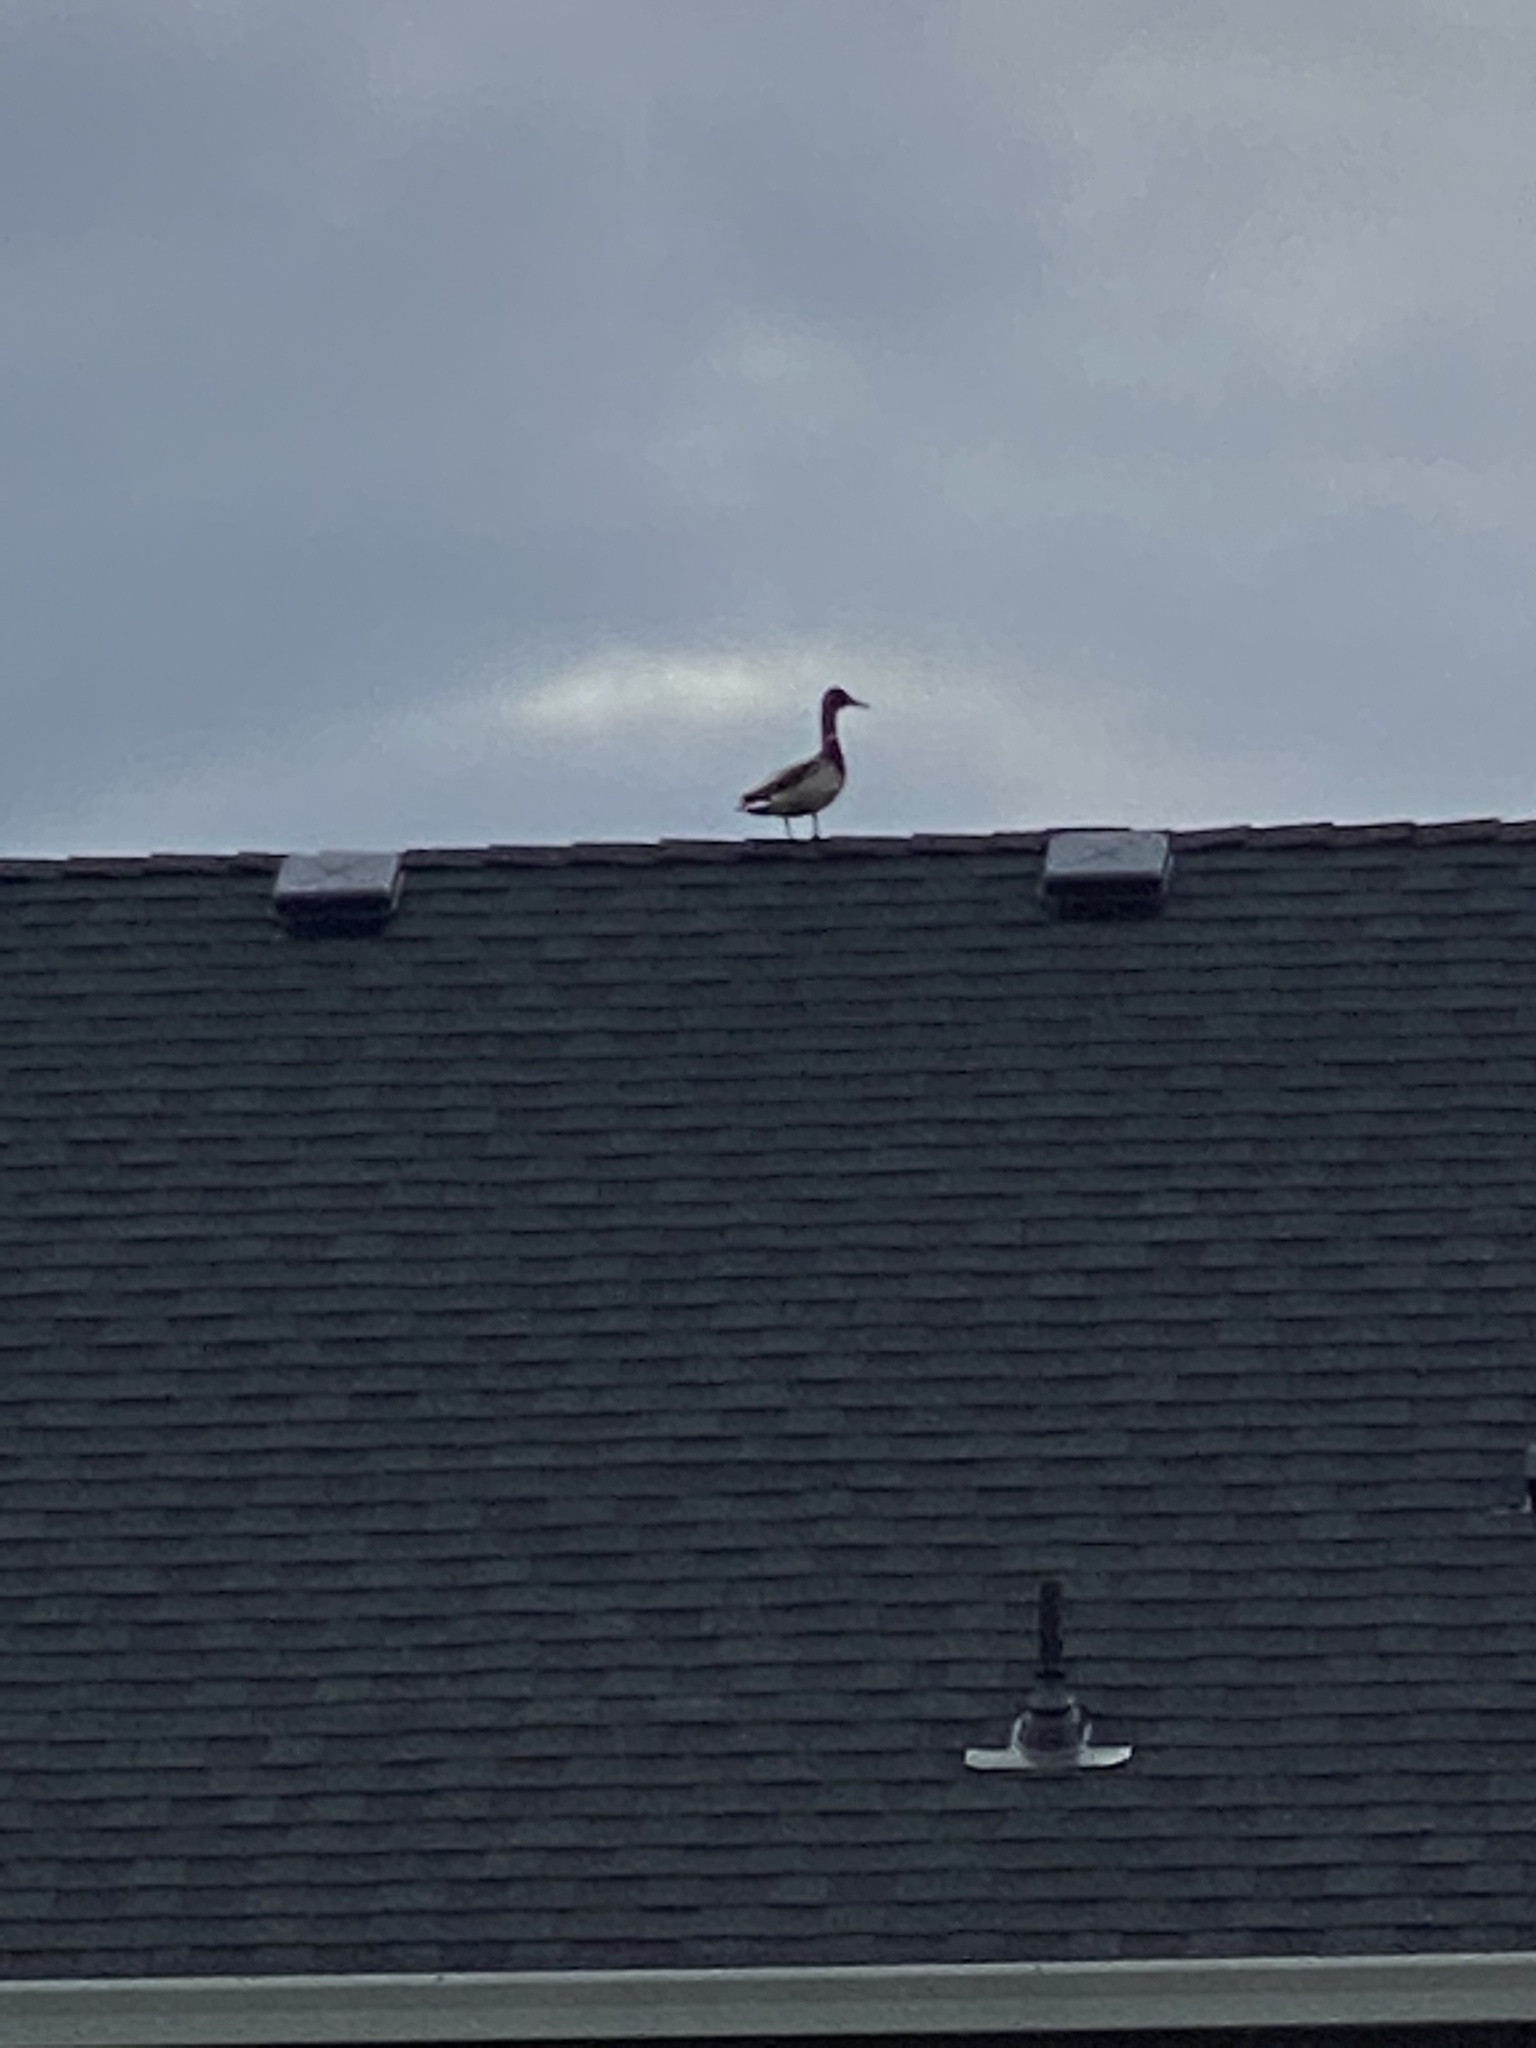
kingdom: Animalia
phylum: Chordata
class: Aves
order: Anseriformes
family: Anatidae
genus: Anas
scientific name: Anas platyrhynchos
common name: Mallard
